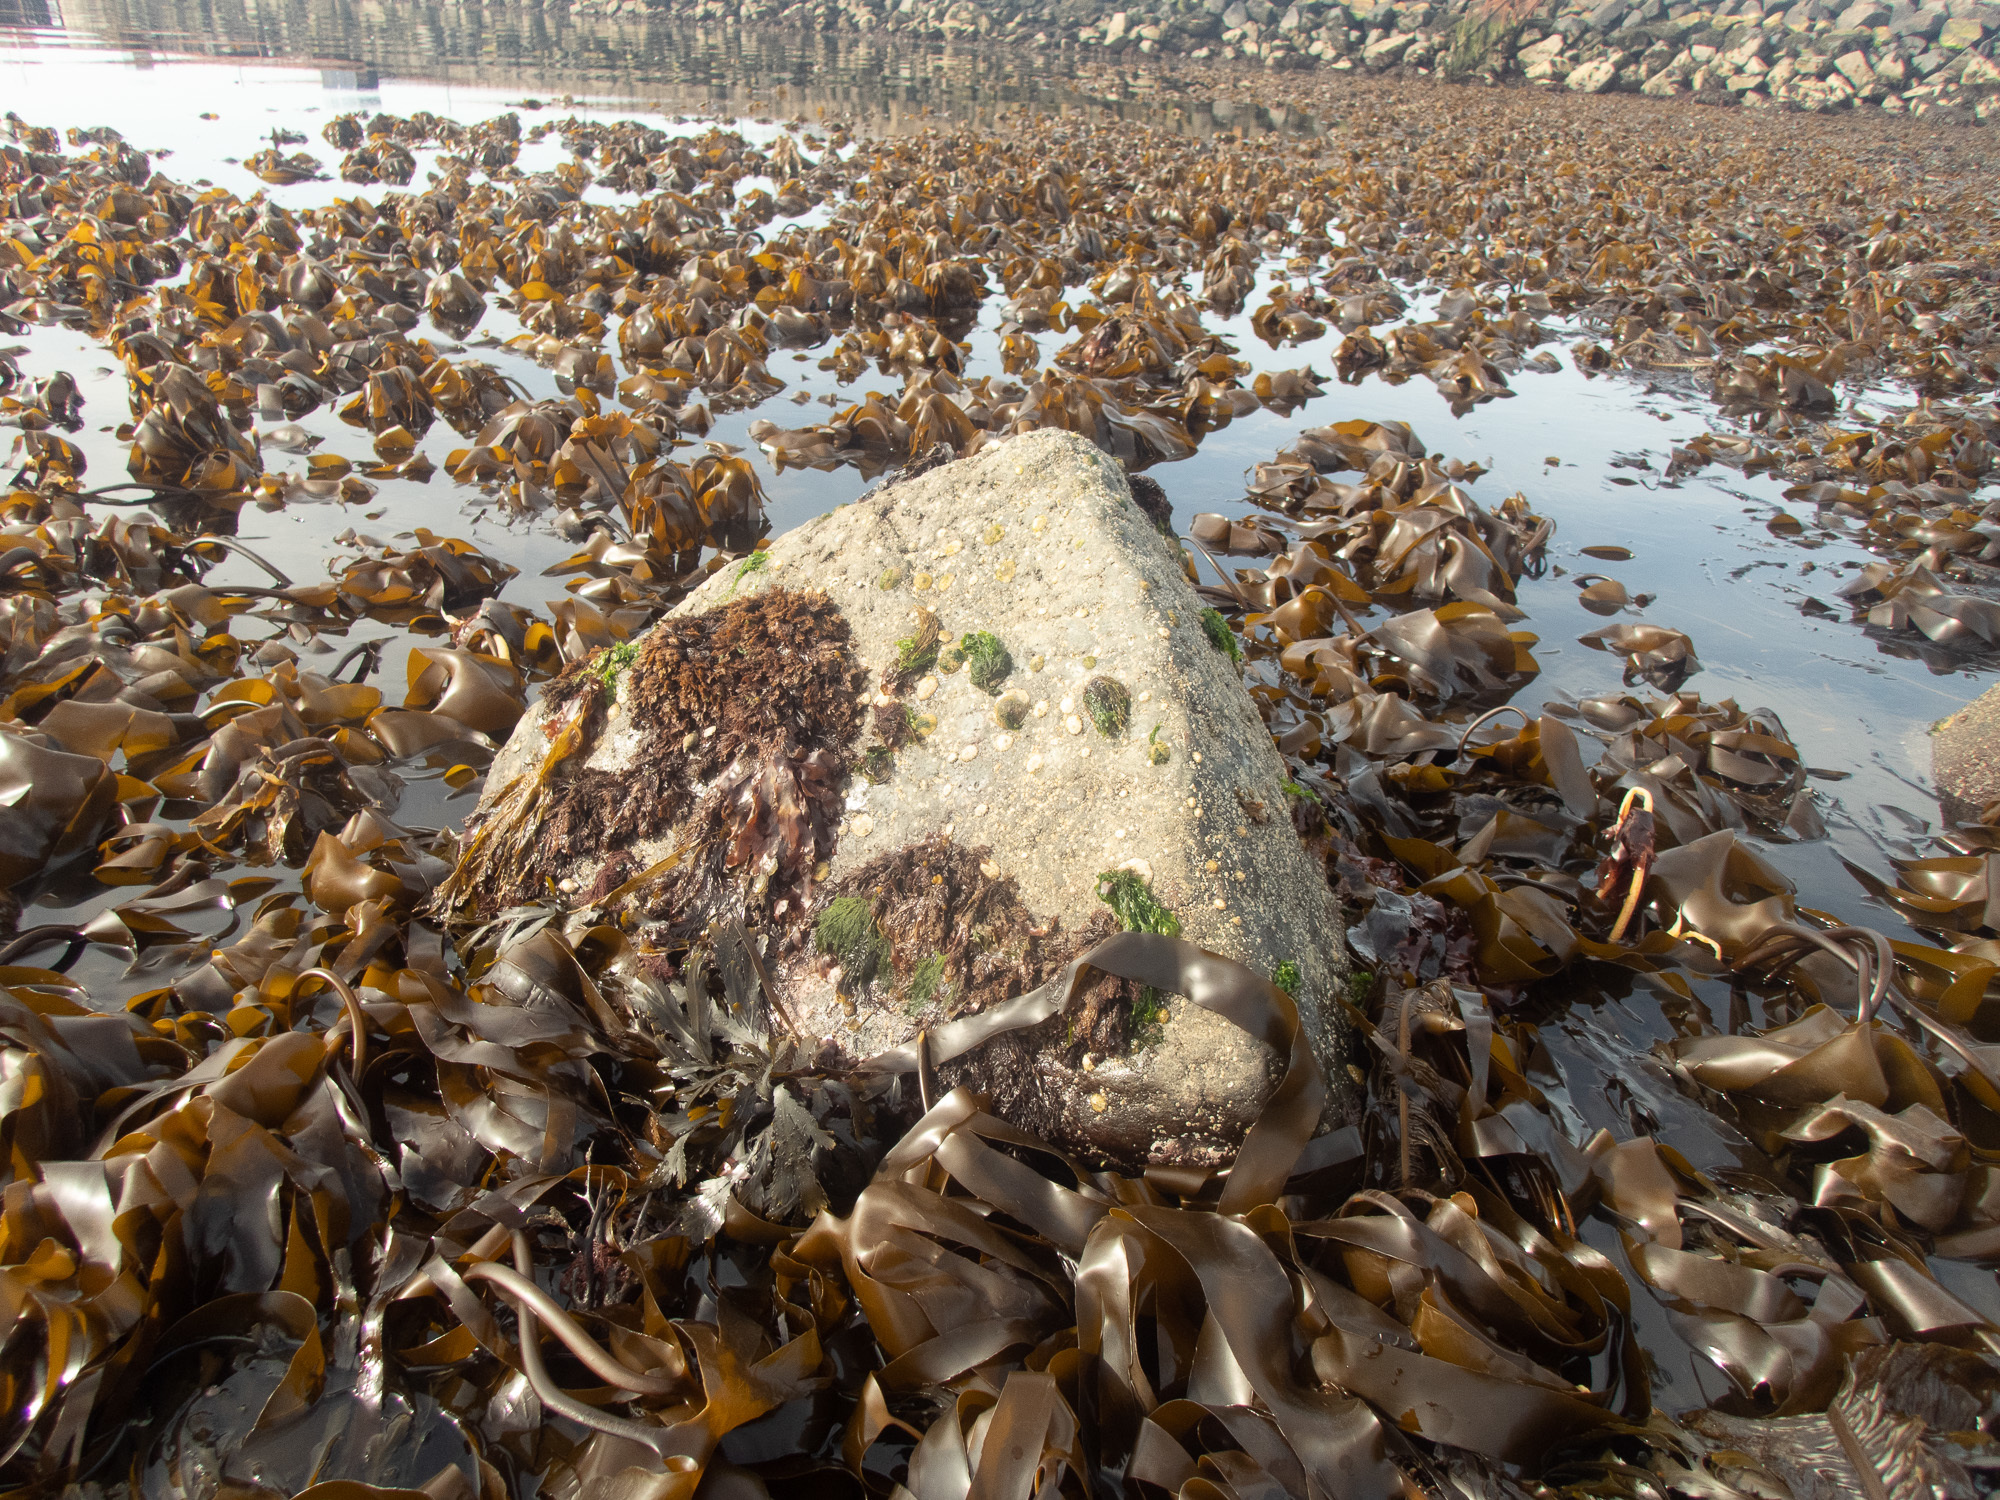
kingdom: Chromista
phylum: Ochrophyta
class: Phaeophyceae
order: Laminariales
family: Laminariaceae
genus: Laminaria
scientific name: Laminaria digitata
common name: Oarweed
